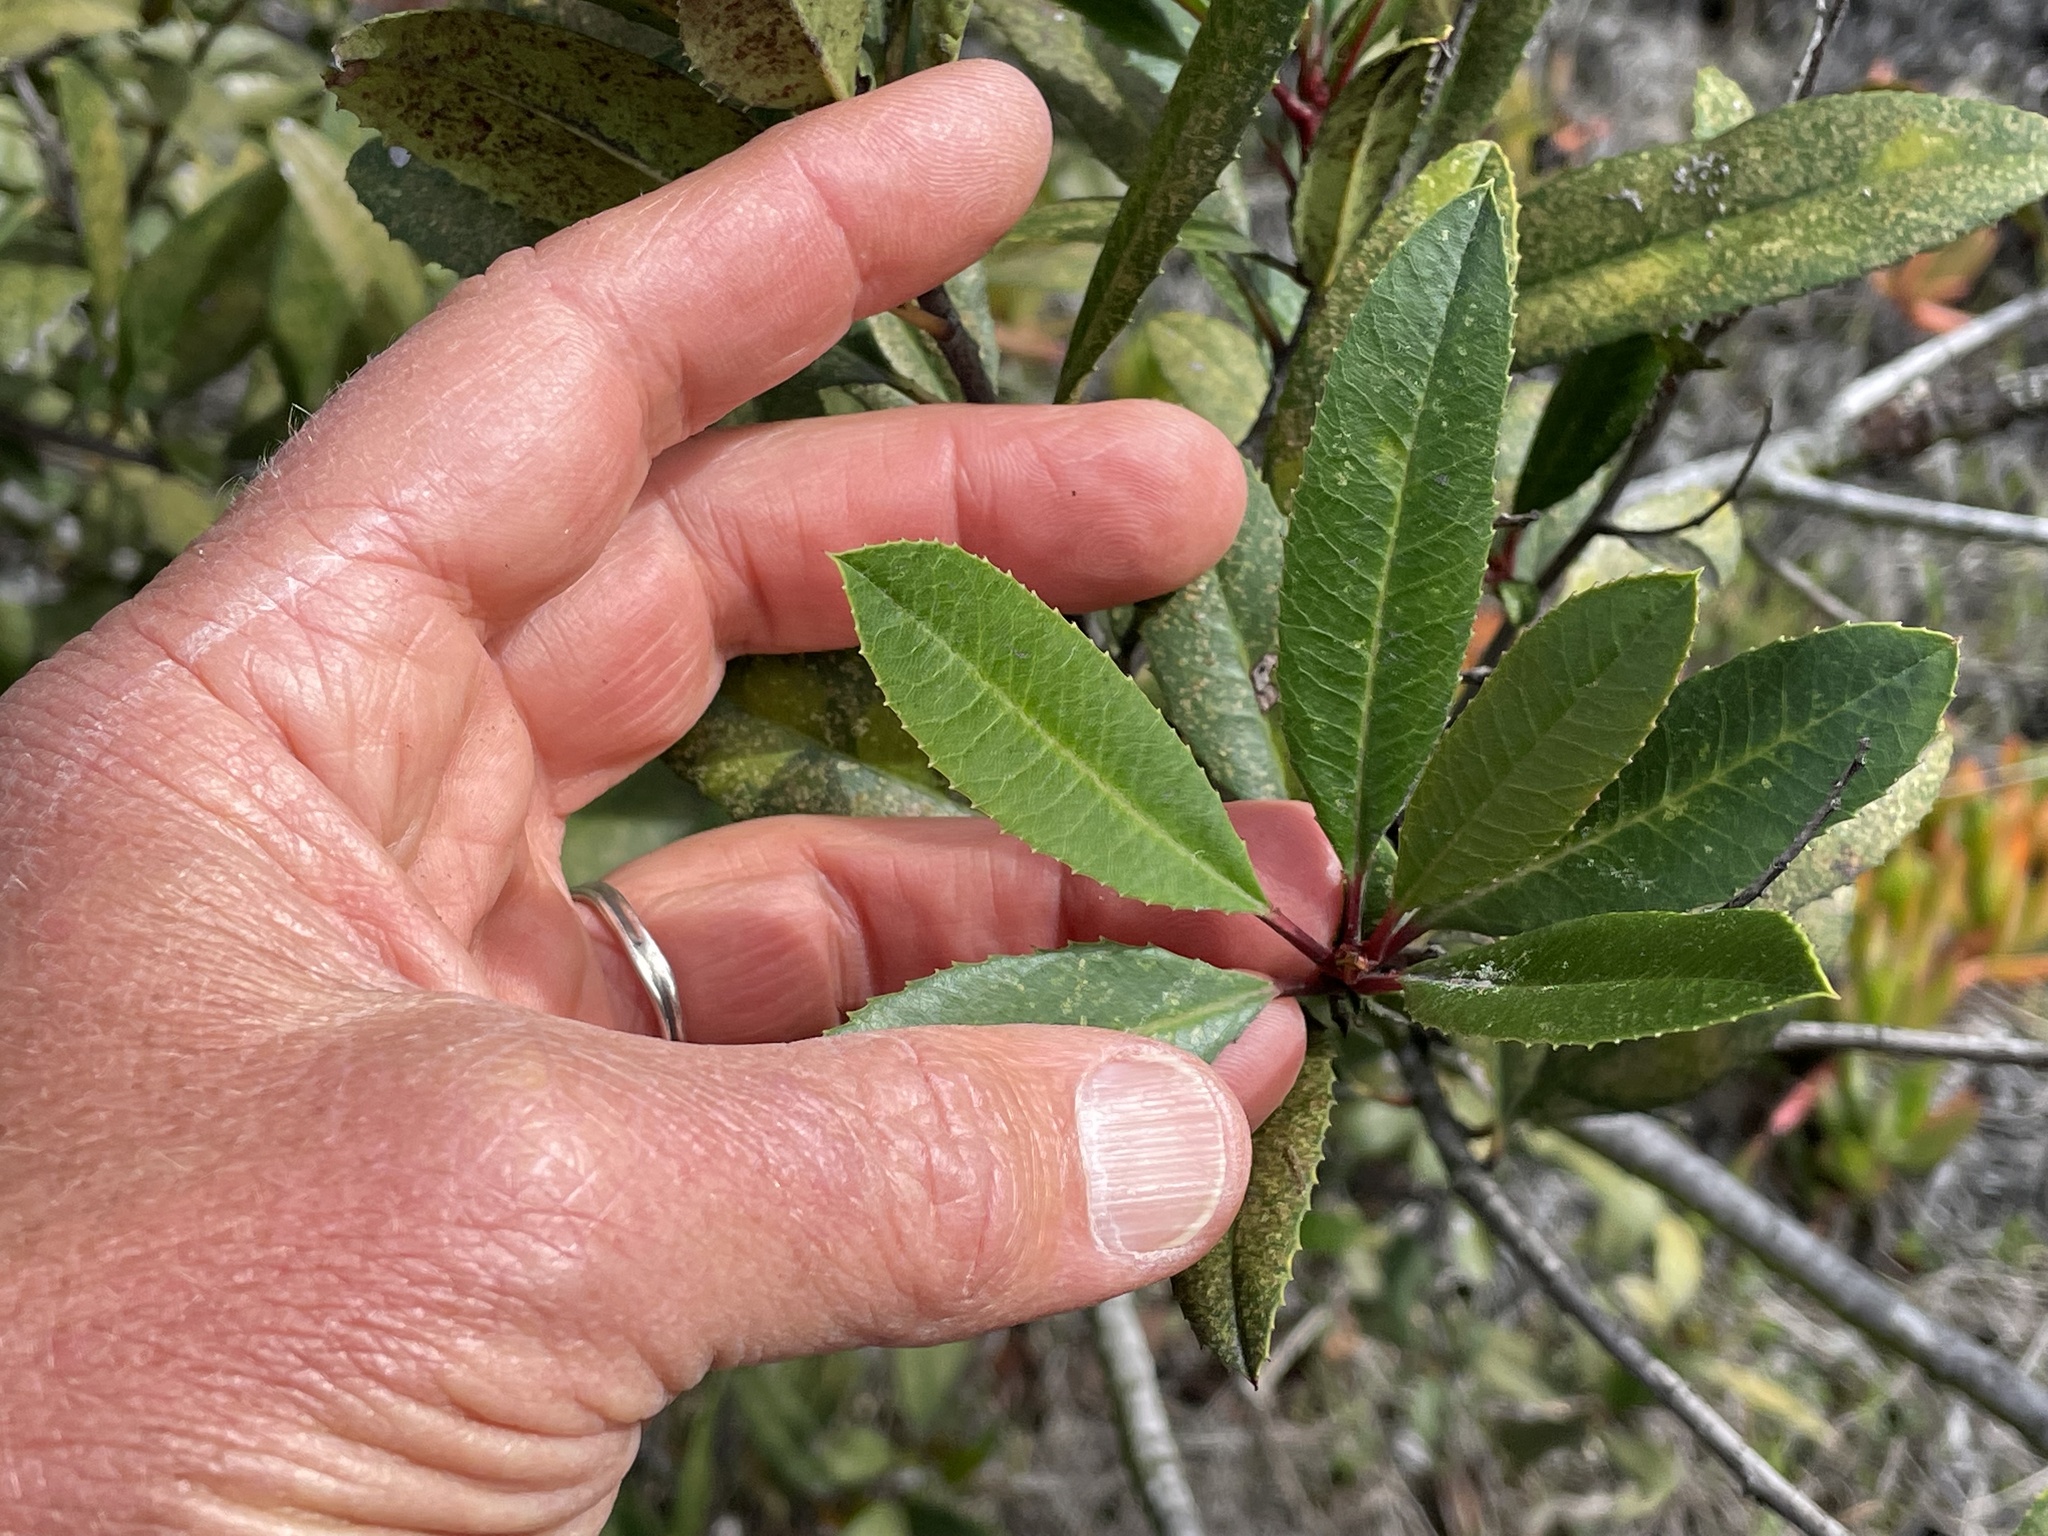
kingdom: Plantae
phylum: Tracheophyta
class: Magnoliopsida
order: Rosales
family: Rosaceae
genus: Heteromeles
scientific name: Heteromeles arbutifolia
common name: California-holly
